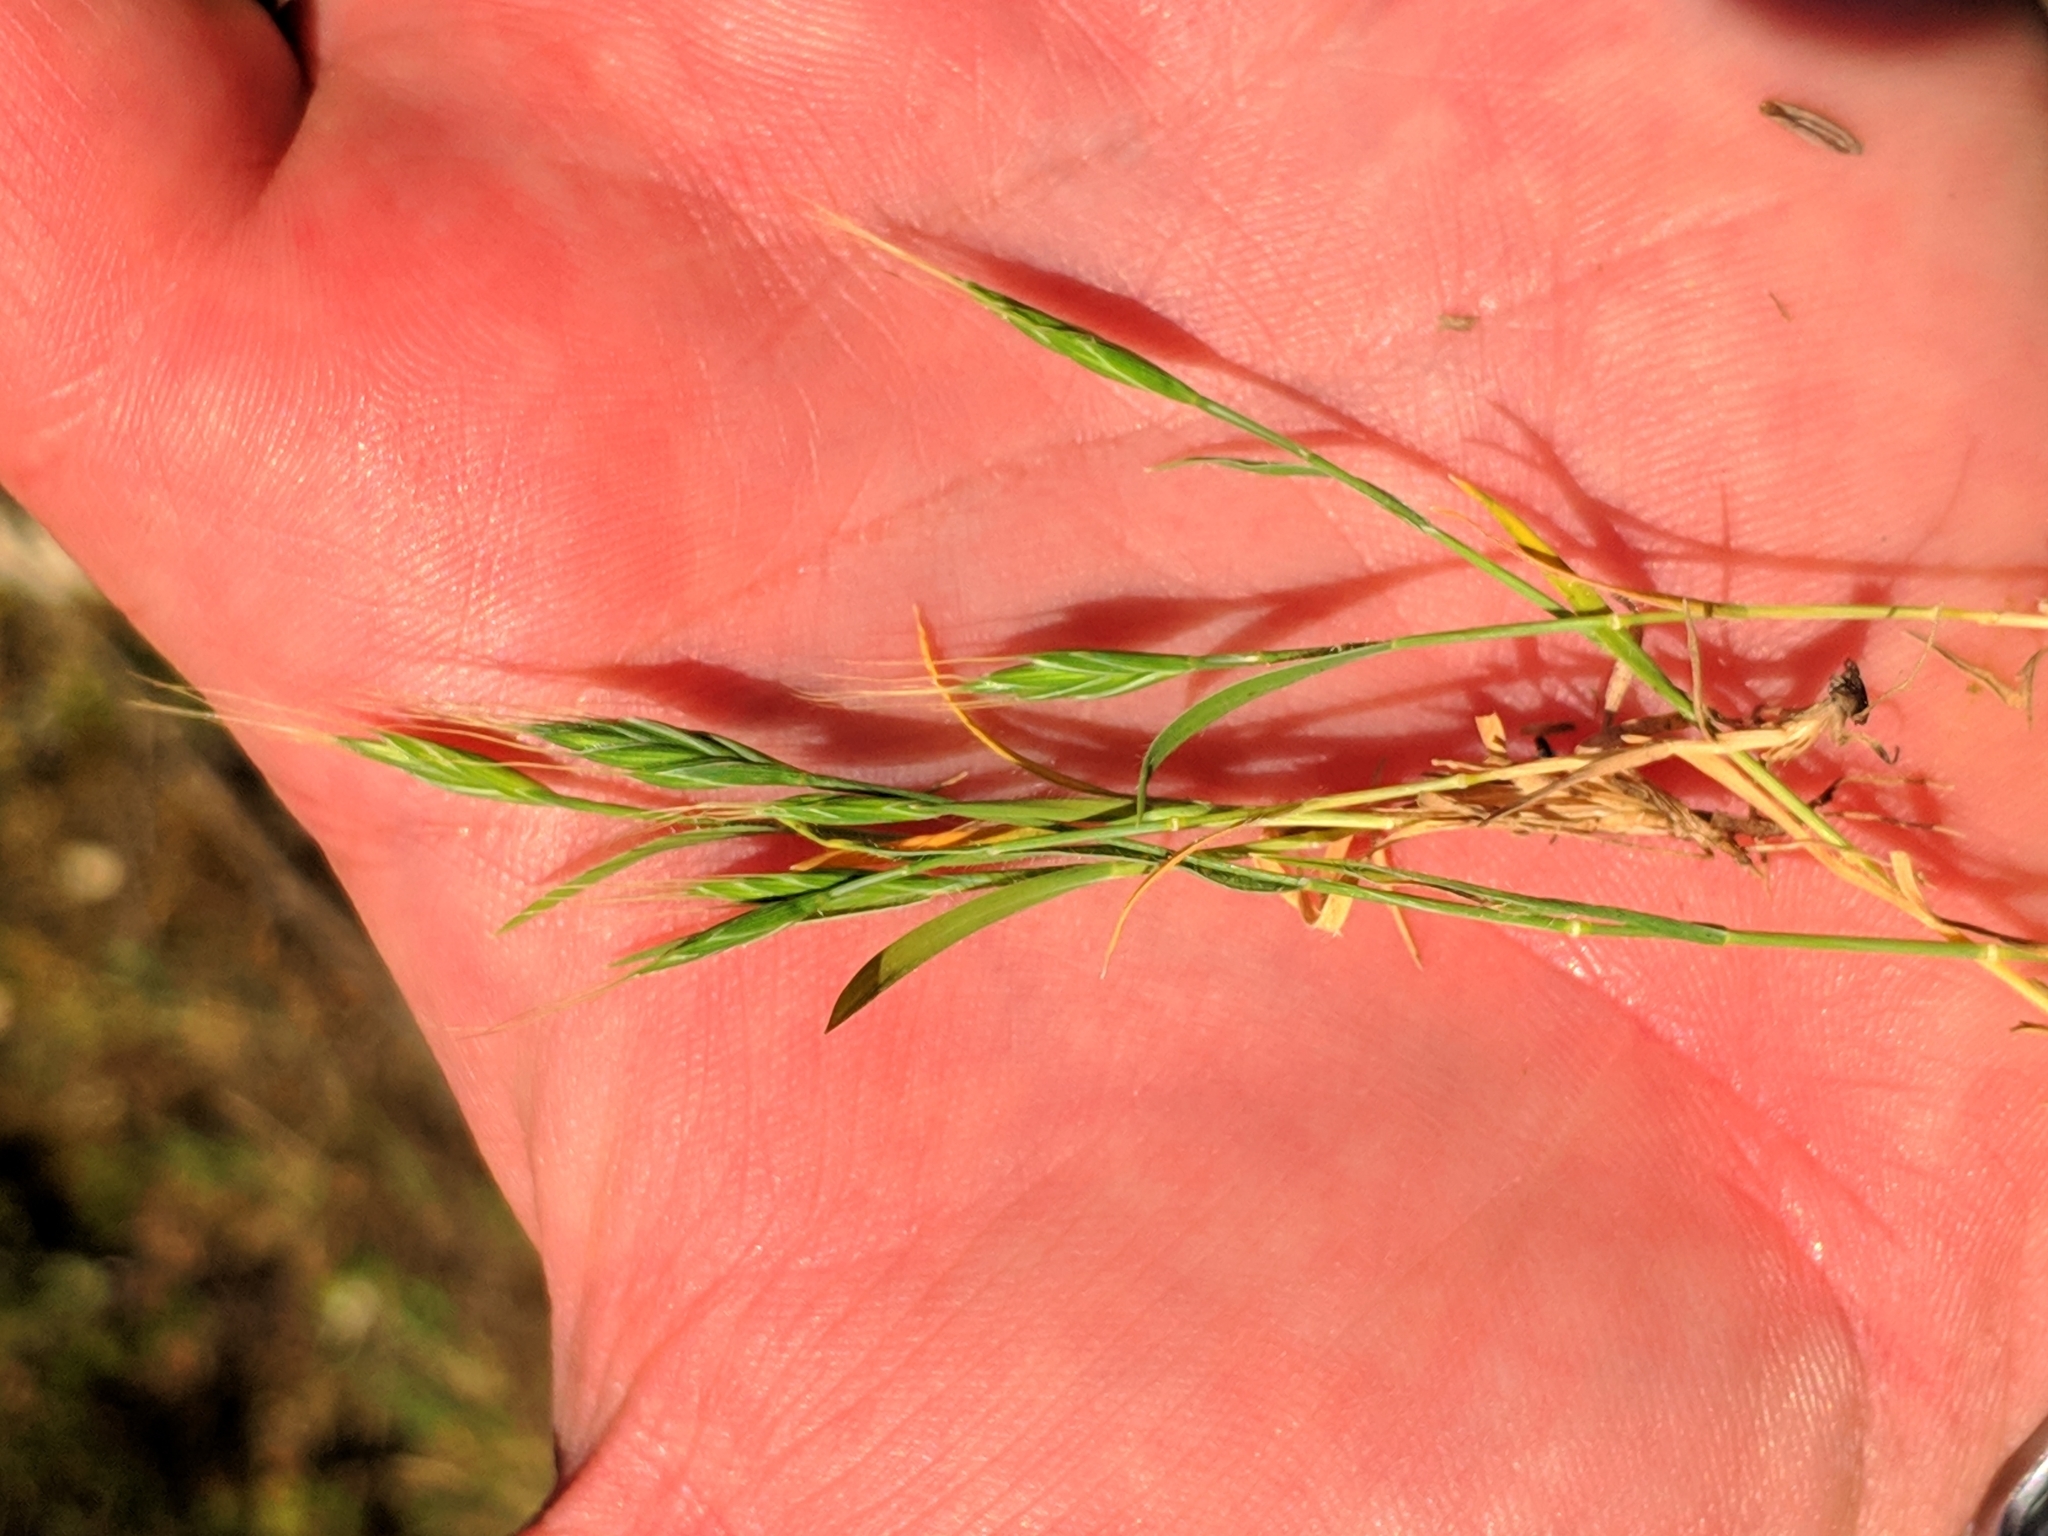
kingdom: Plantae
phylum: Tracheophyta
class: Liliopsida
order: Poales
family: Poaceae
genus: Brachypodium
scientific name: Brachypodium distachyon
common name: Stiff brome
